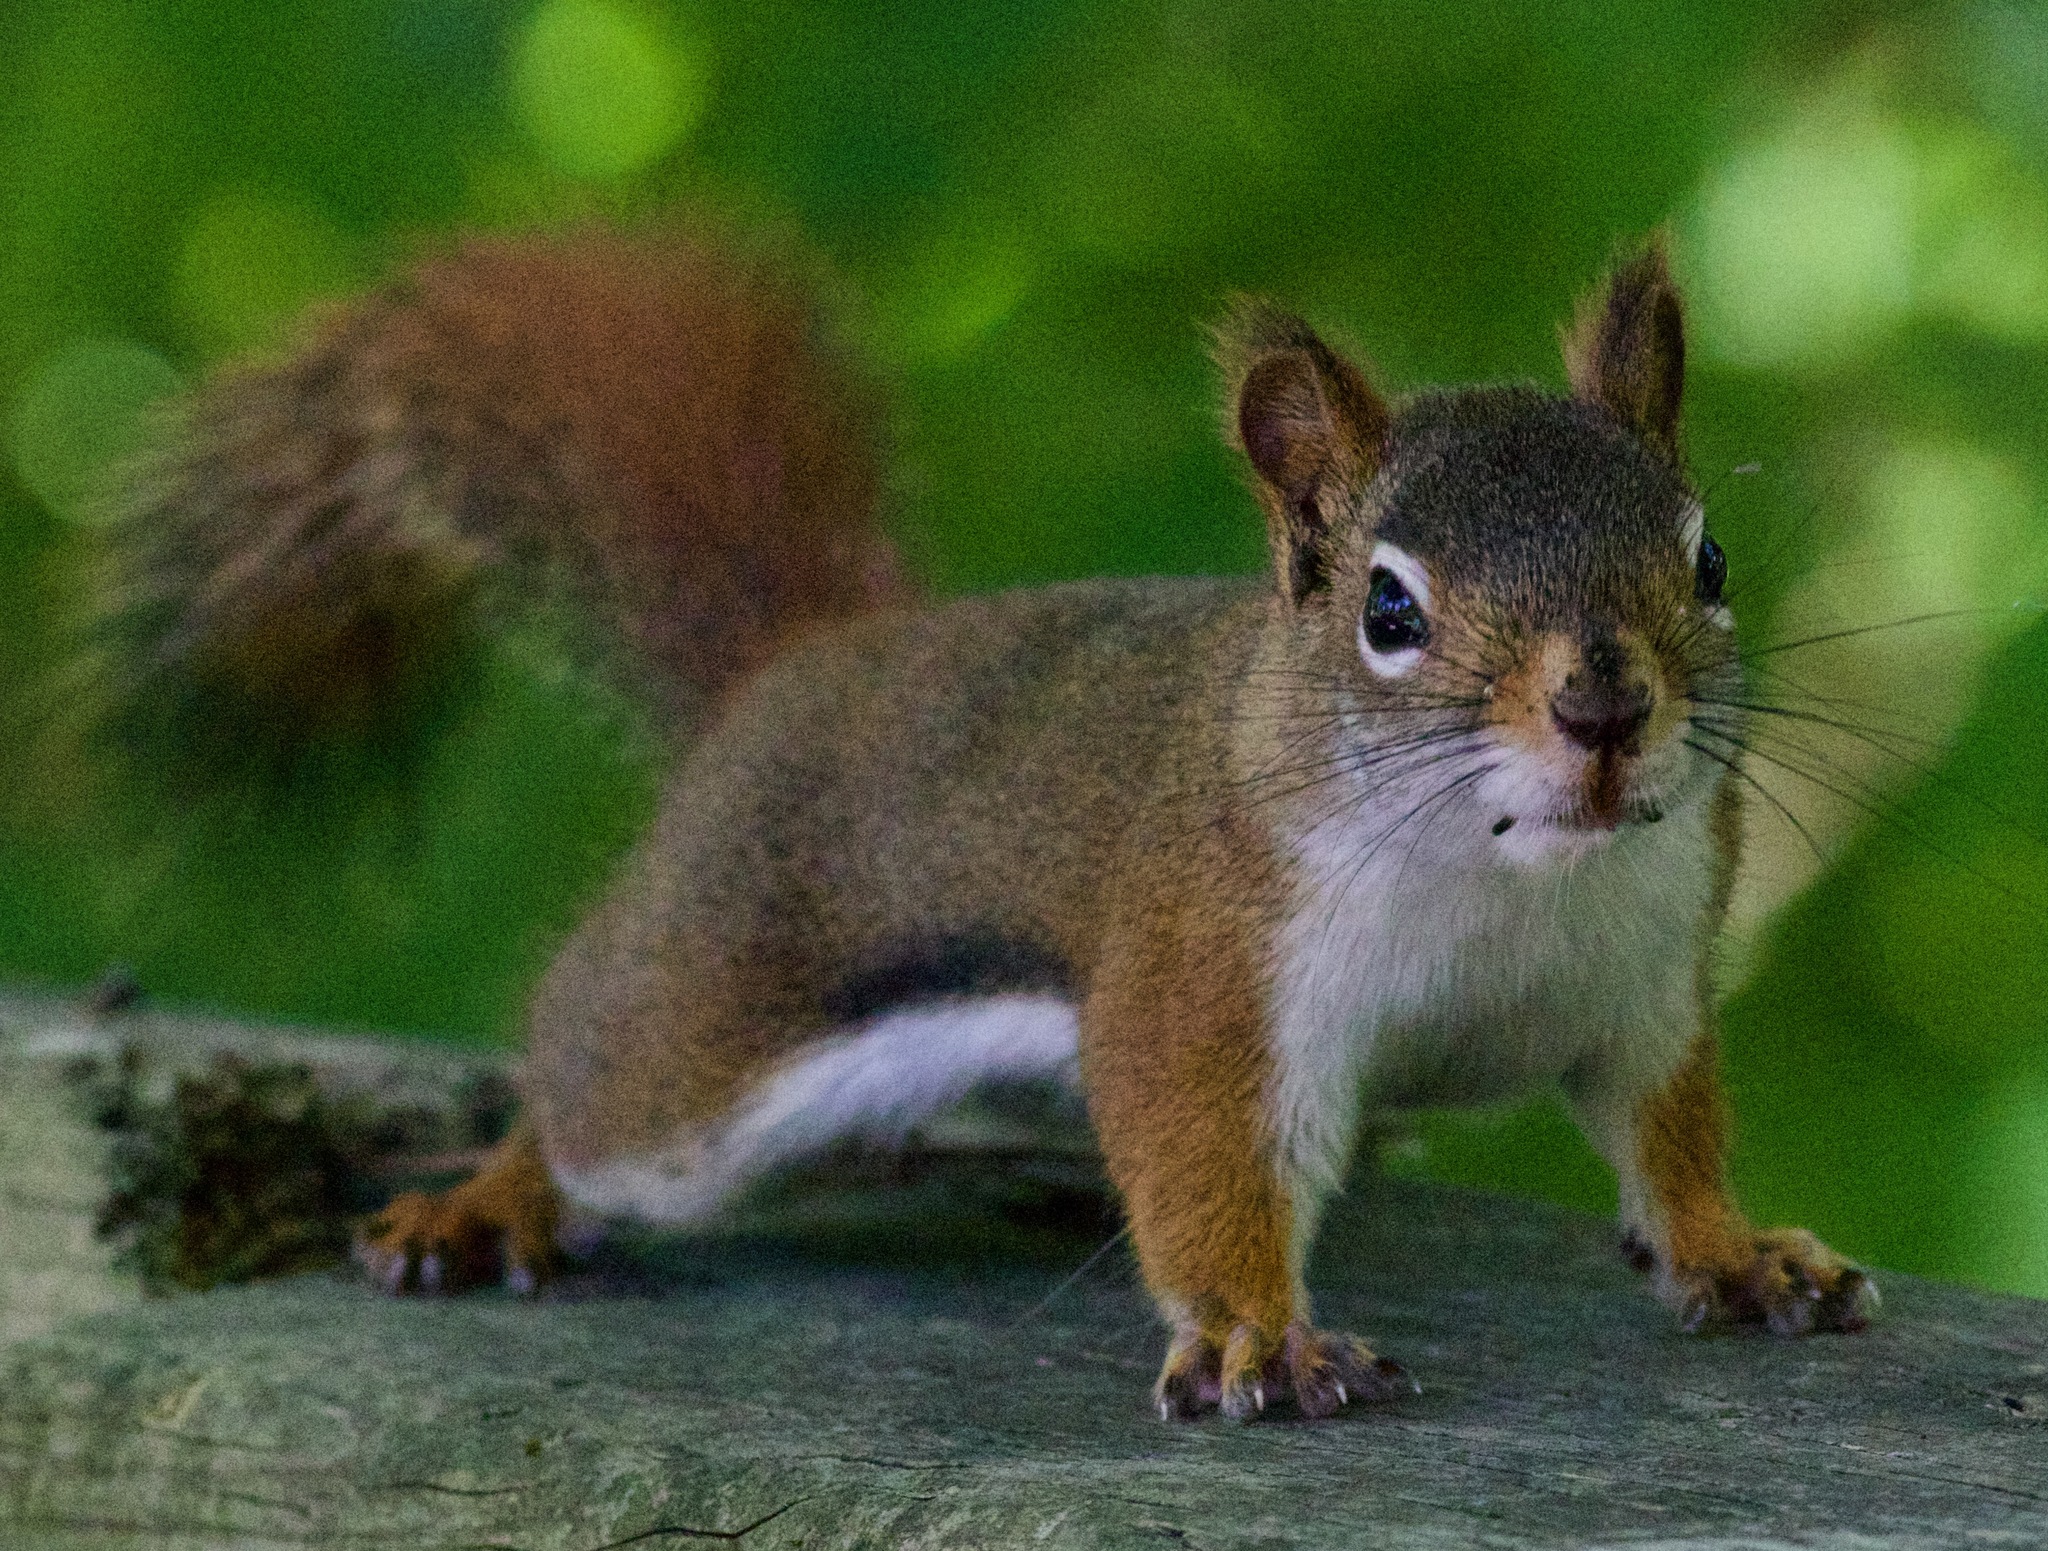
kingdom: Animalia
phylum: Chordata
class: Mammalia
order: Rodentia
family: Sciuridae
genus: Tamiasciurus
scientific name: Tamiasciurus hudsonicus
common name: Red squirrel
